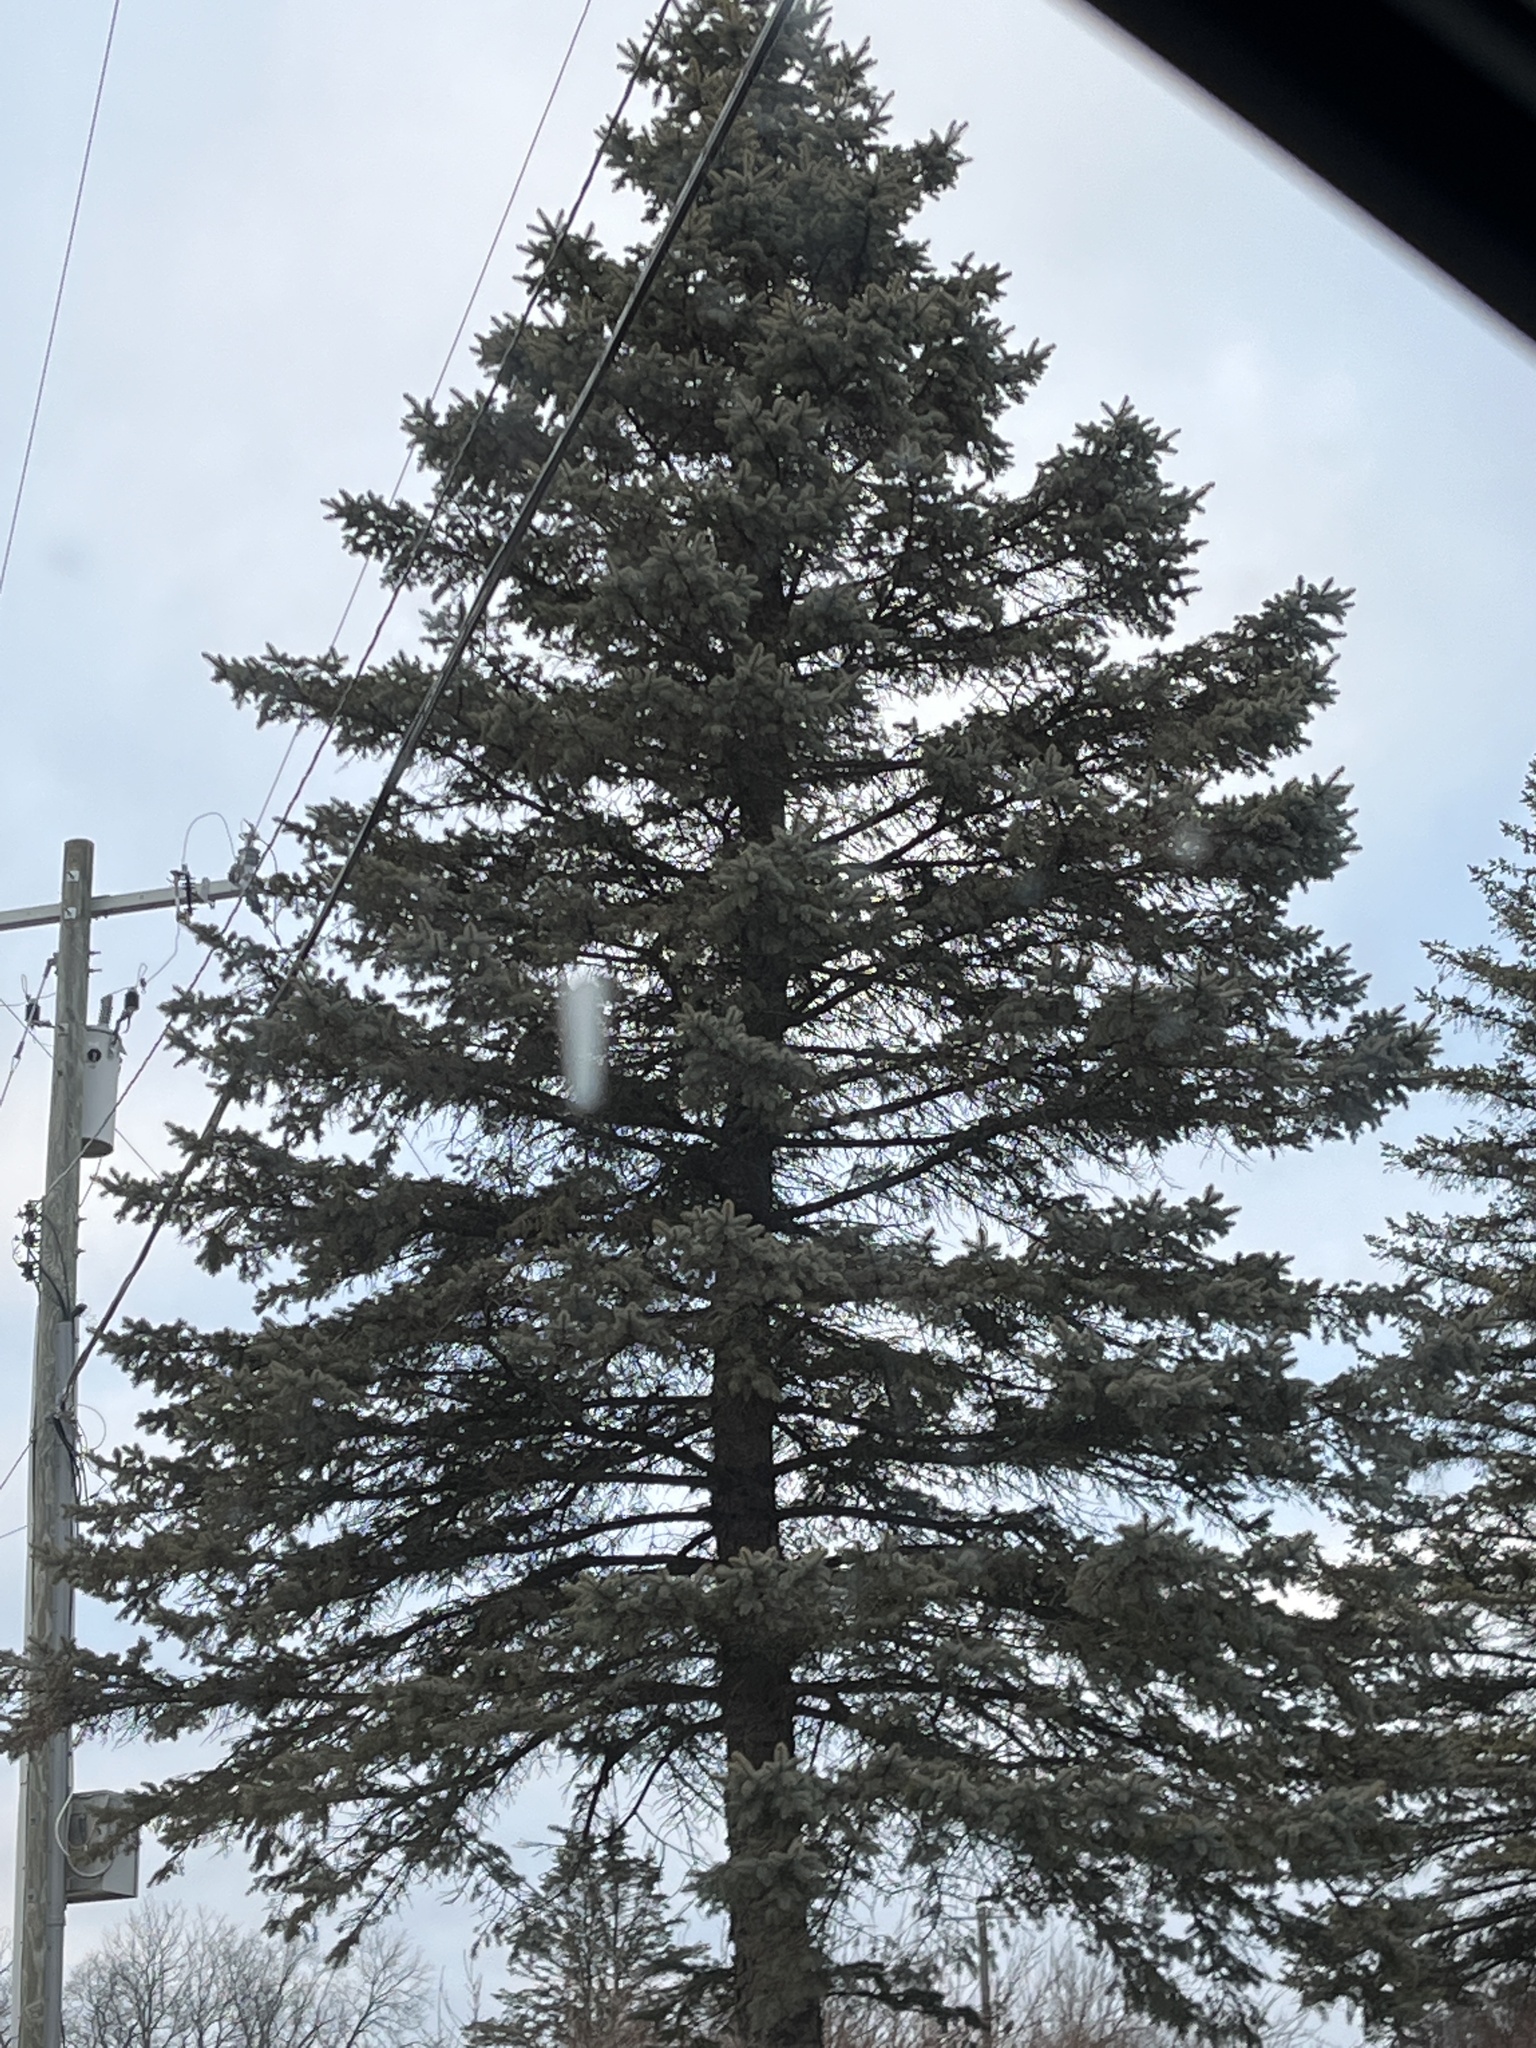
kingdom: Plantae
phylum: Tracheophyta
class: Pinopsida
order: Pinales
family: Pinaceae
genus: Picea
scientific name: Picea pungens
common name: Colorado spruce
